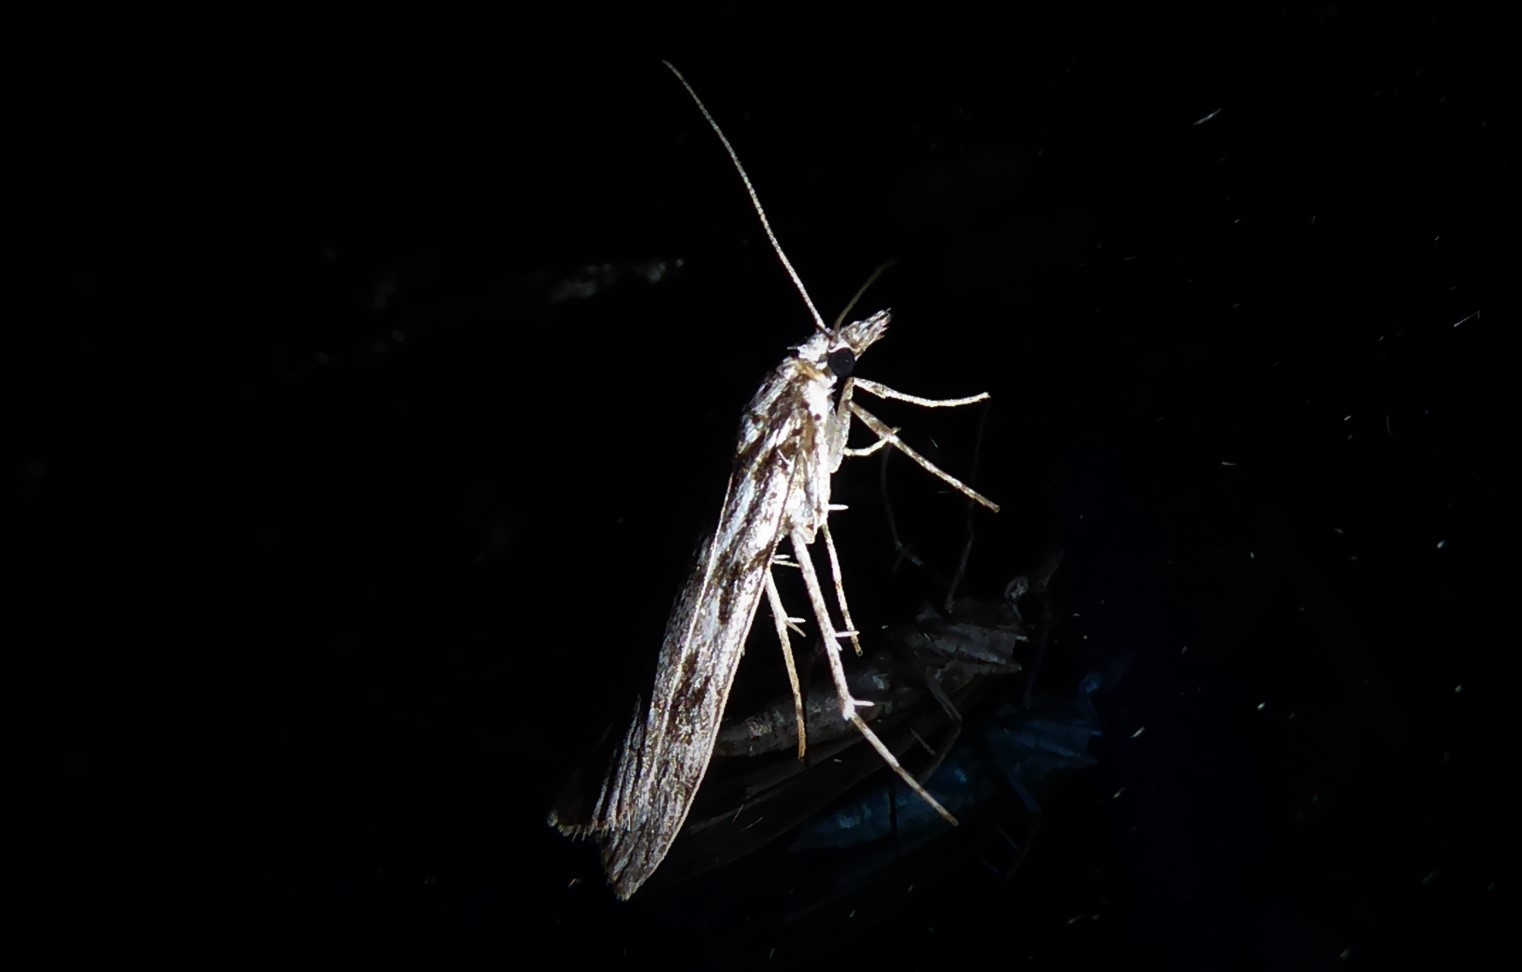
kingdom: Animalia
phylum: Arthropoda
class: Insecta
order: Lepidoptera
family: Crambidae
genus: Scoparia
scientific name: Scoparia halopis
